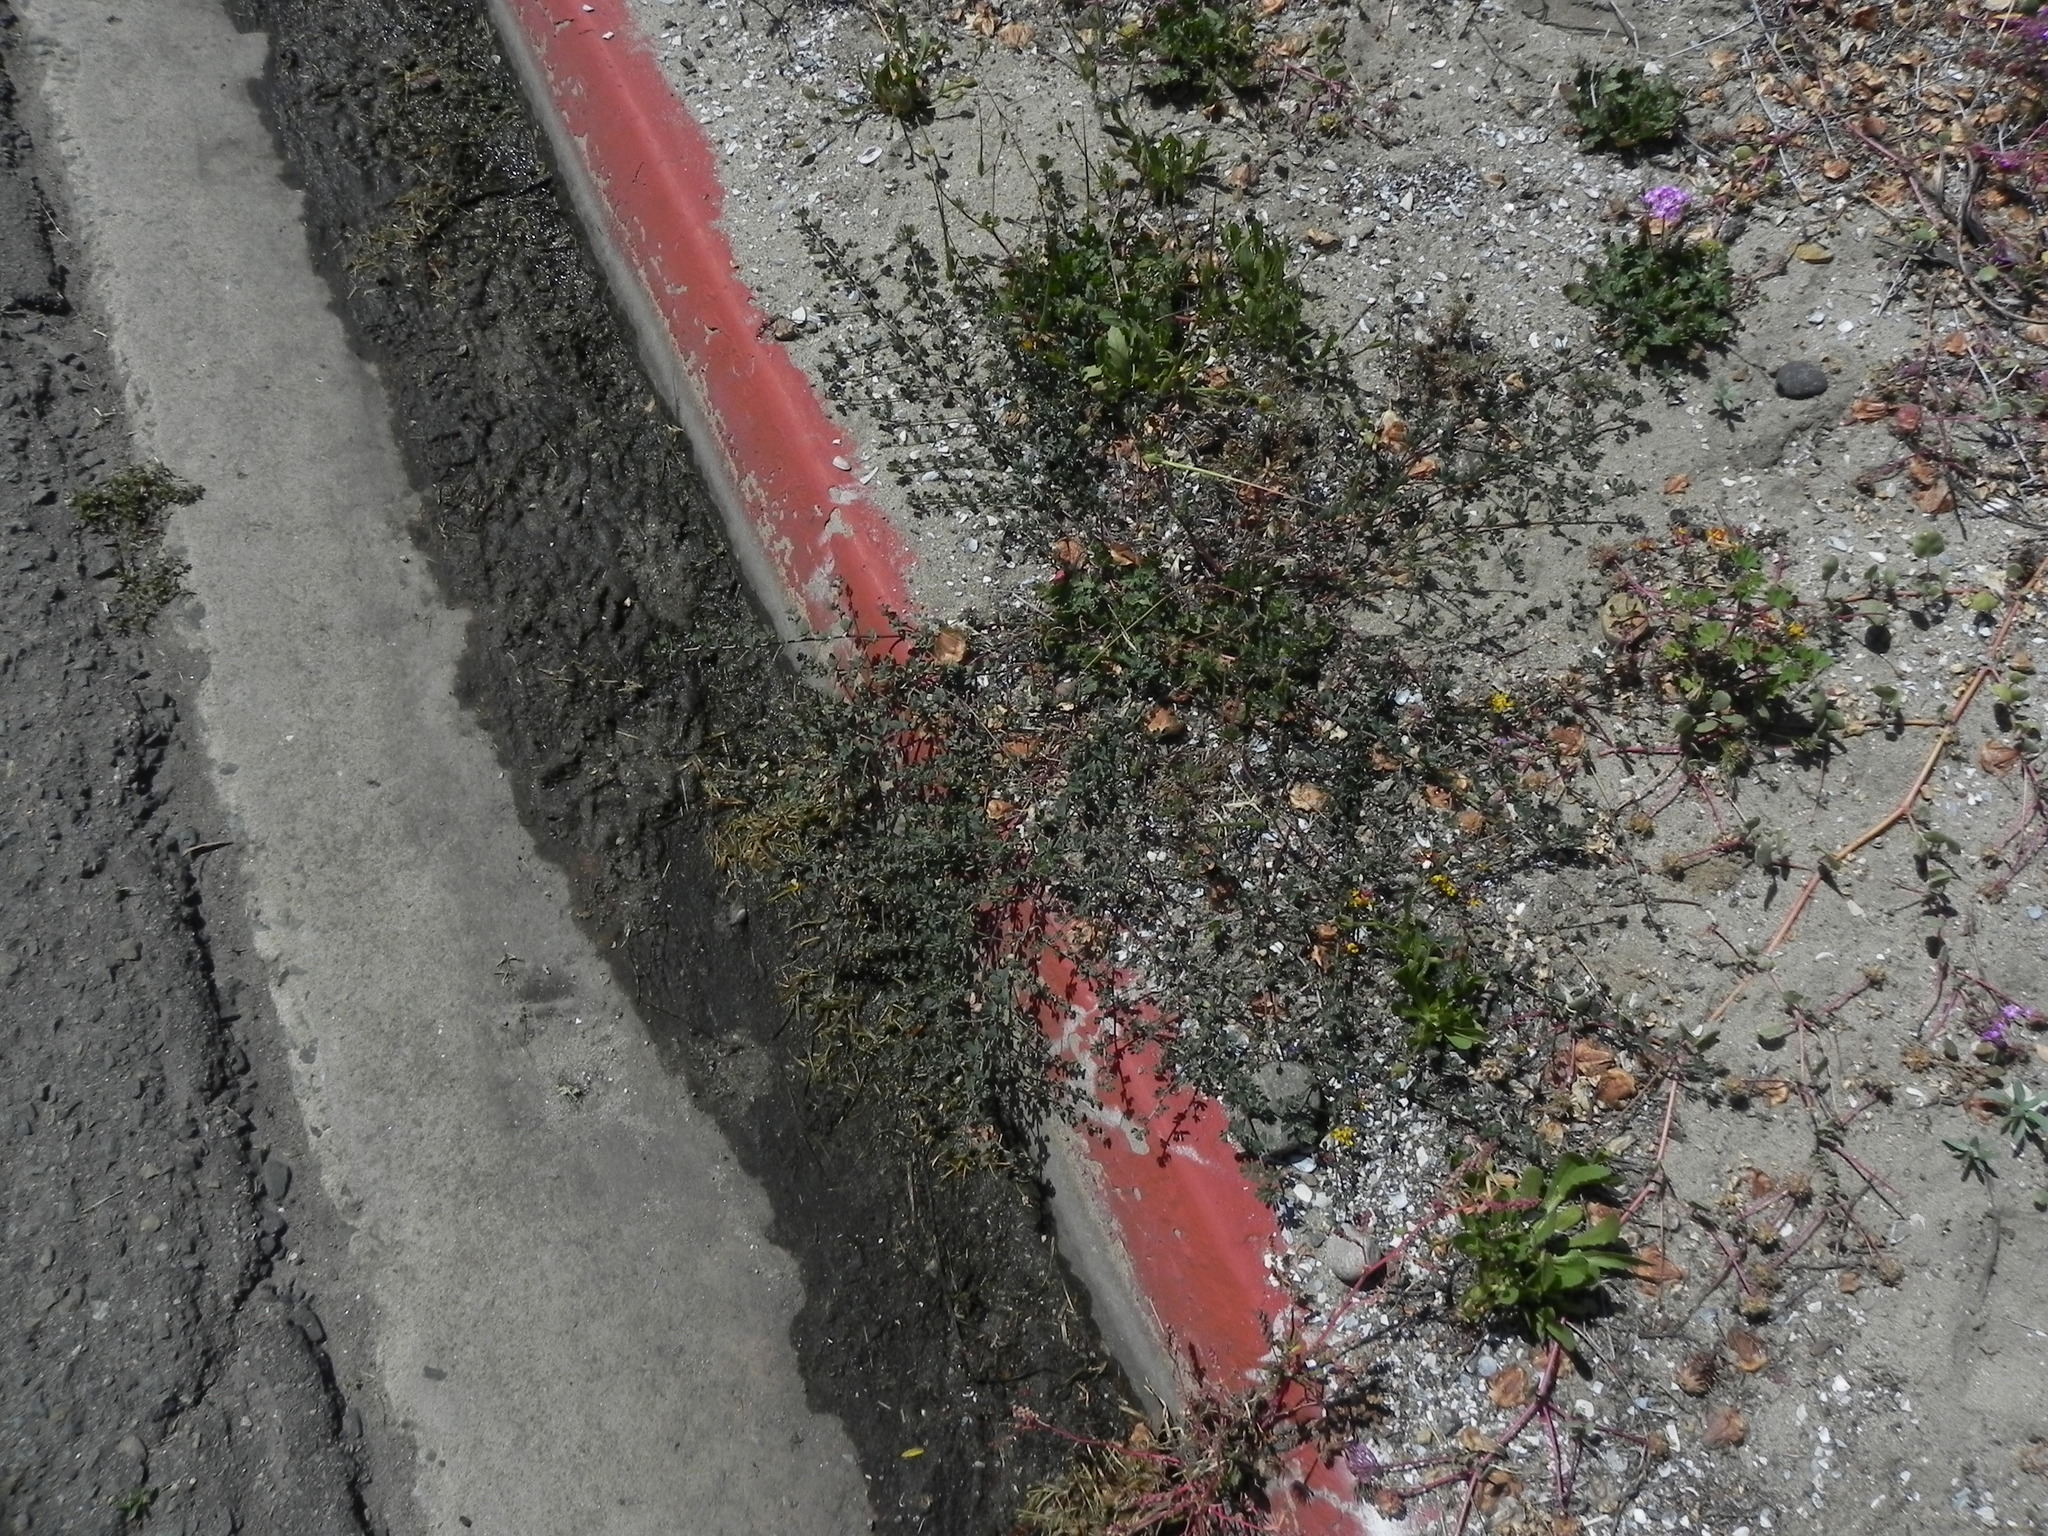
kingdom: Plantae
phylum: Tracheophyta
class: Magnoliopsida
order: Fabales
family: Fabaceae
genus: Acmispon
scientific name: Acmispon prostratus
